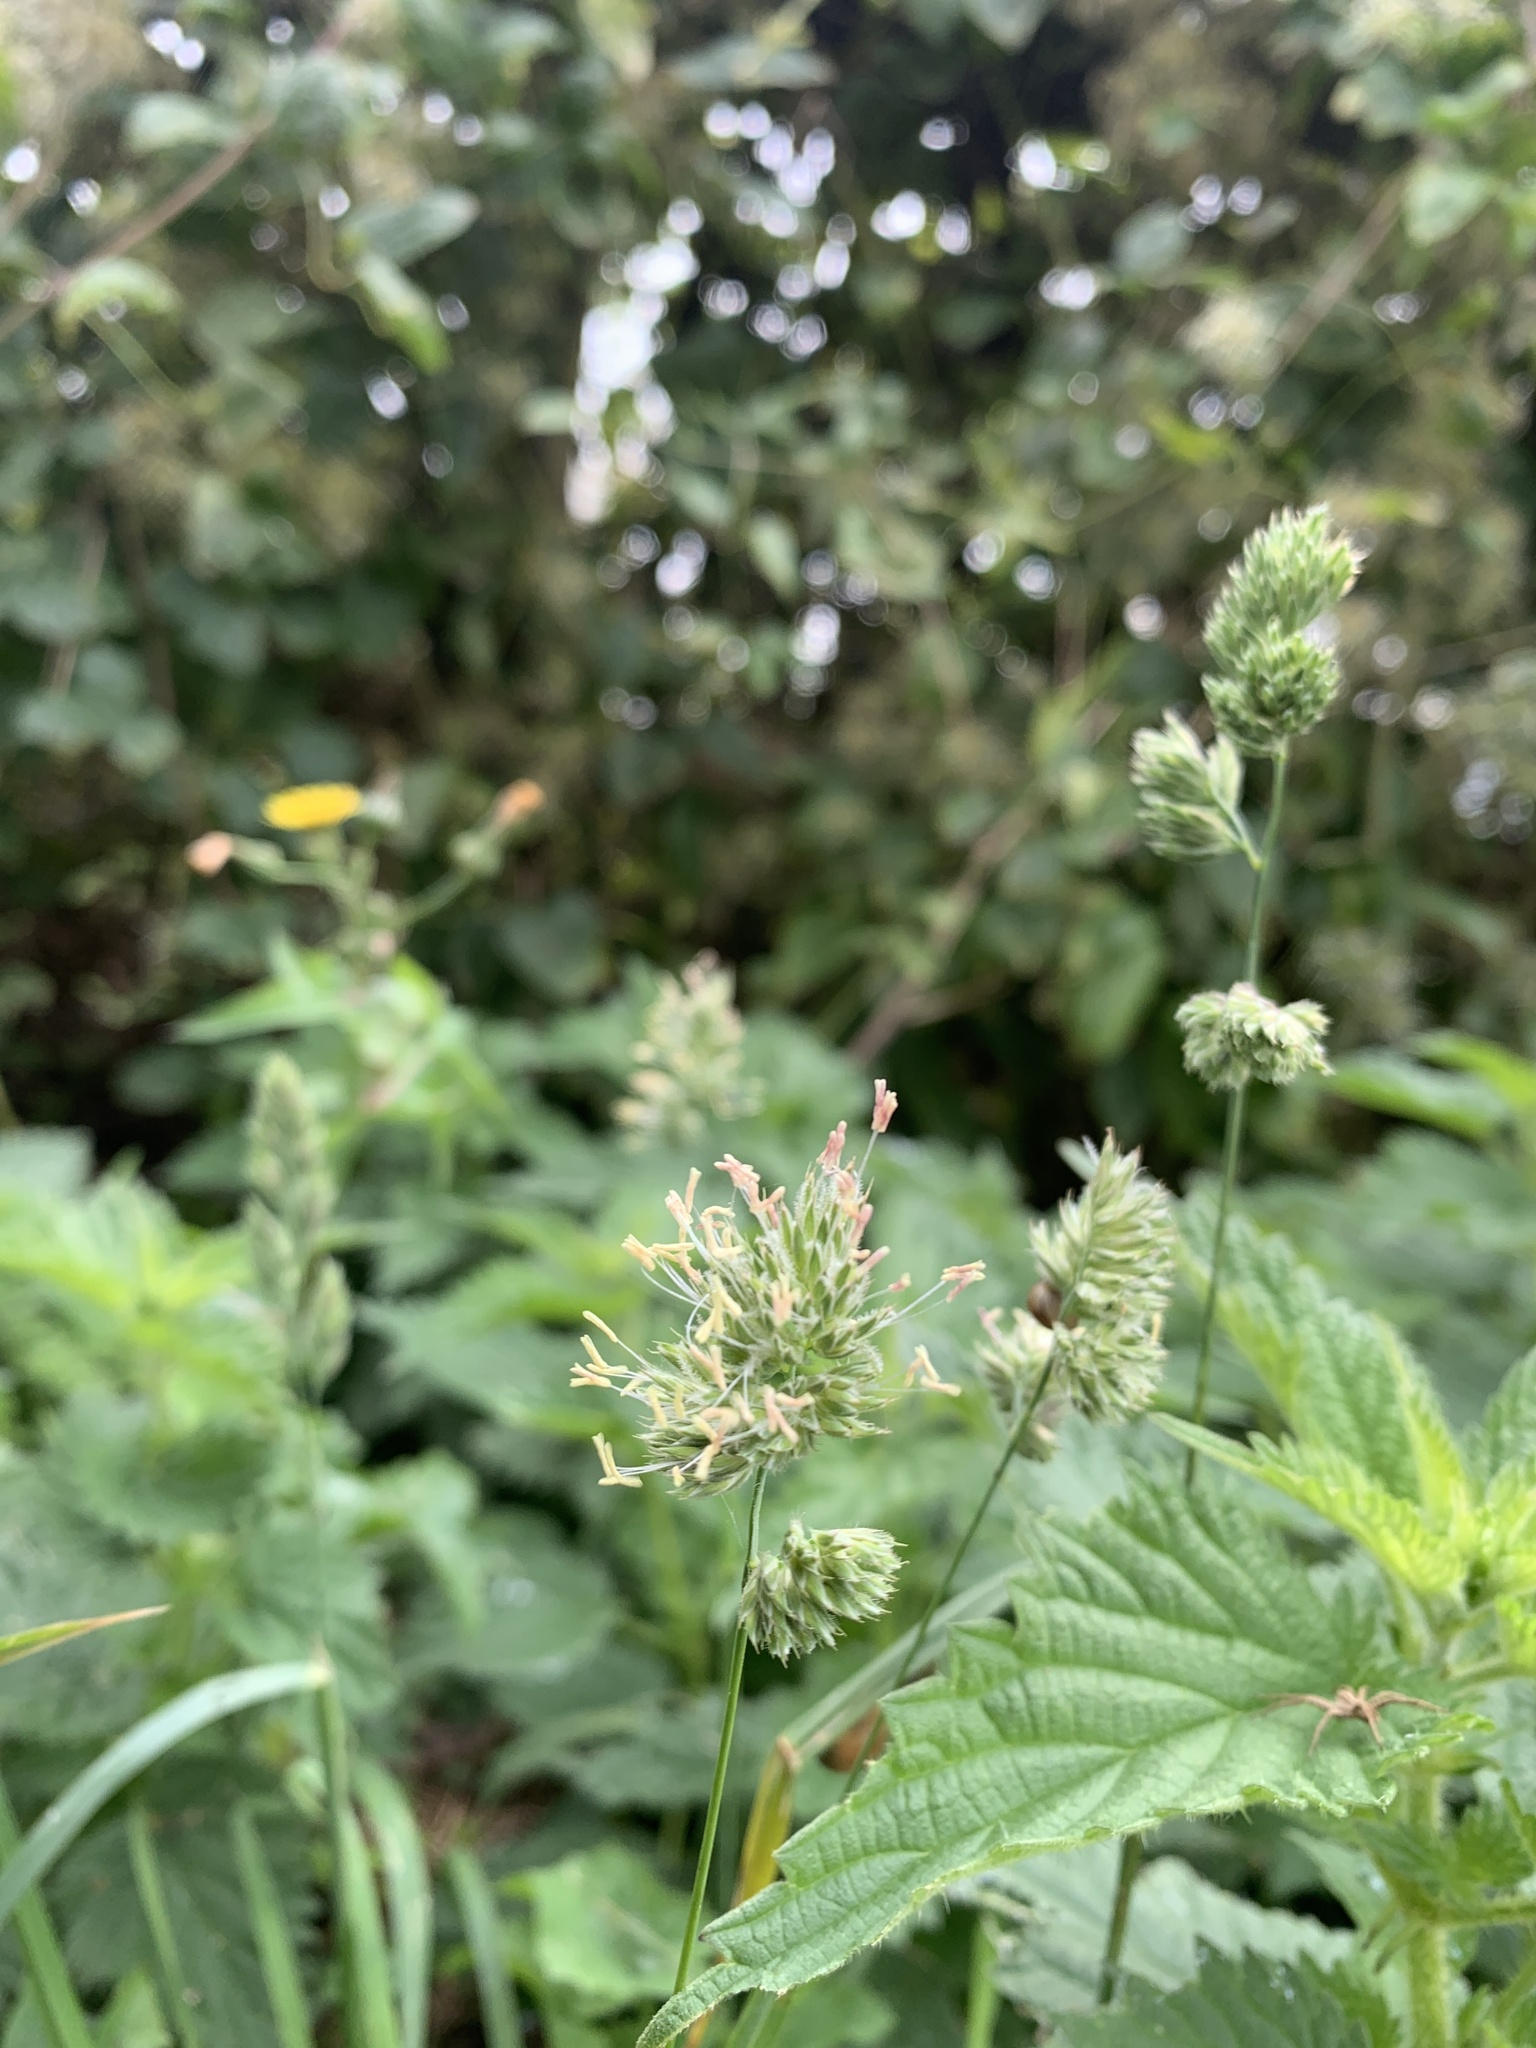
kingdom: Plantae
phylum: Tracheophyta
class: Liliopsida
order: Poales
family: Poaceae
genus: Dactylis
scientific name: Dactylis glomerata
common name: Orchardgrass
